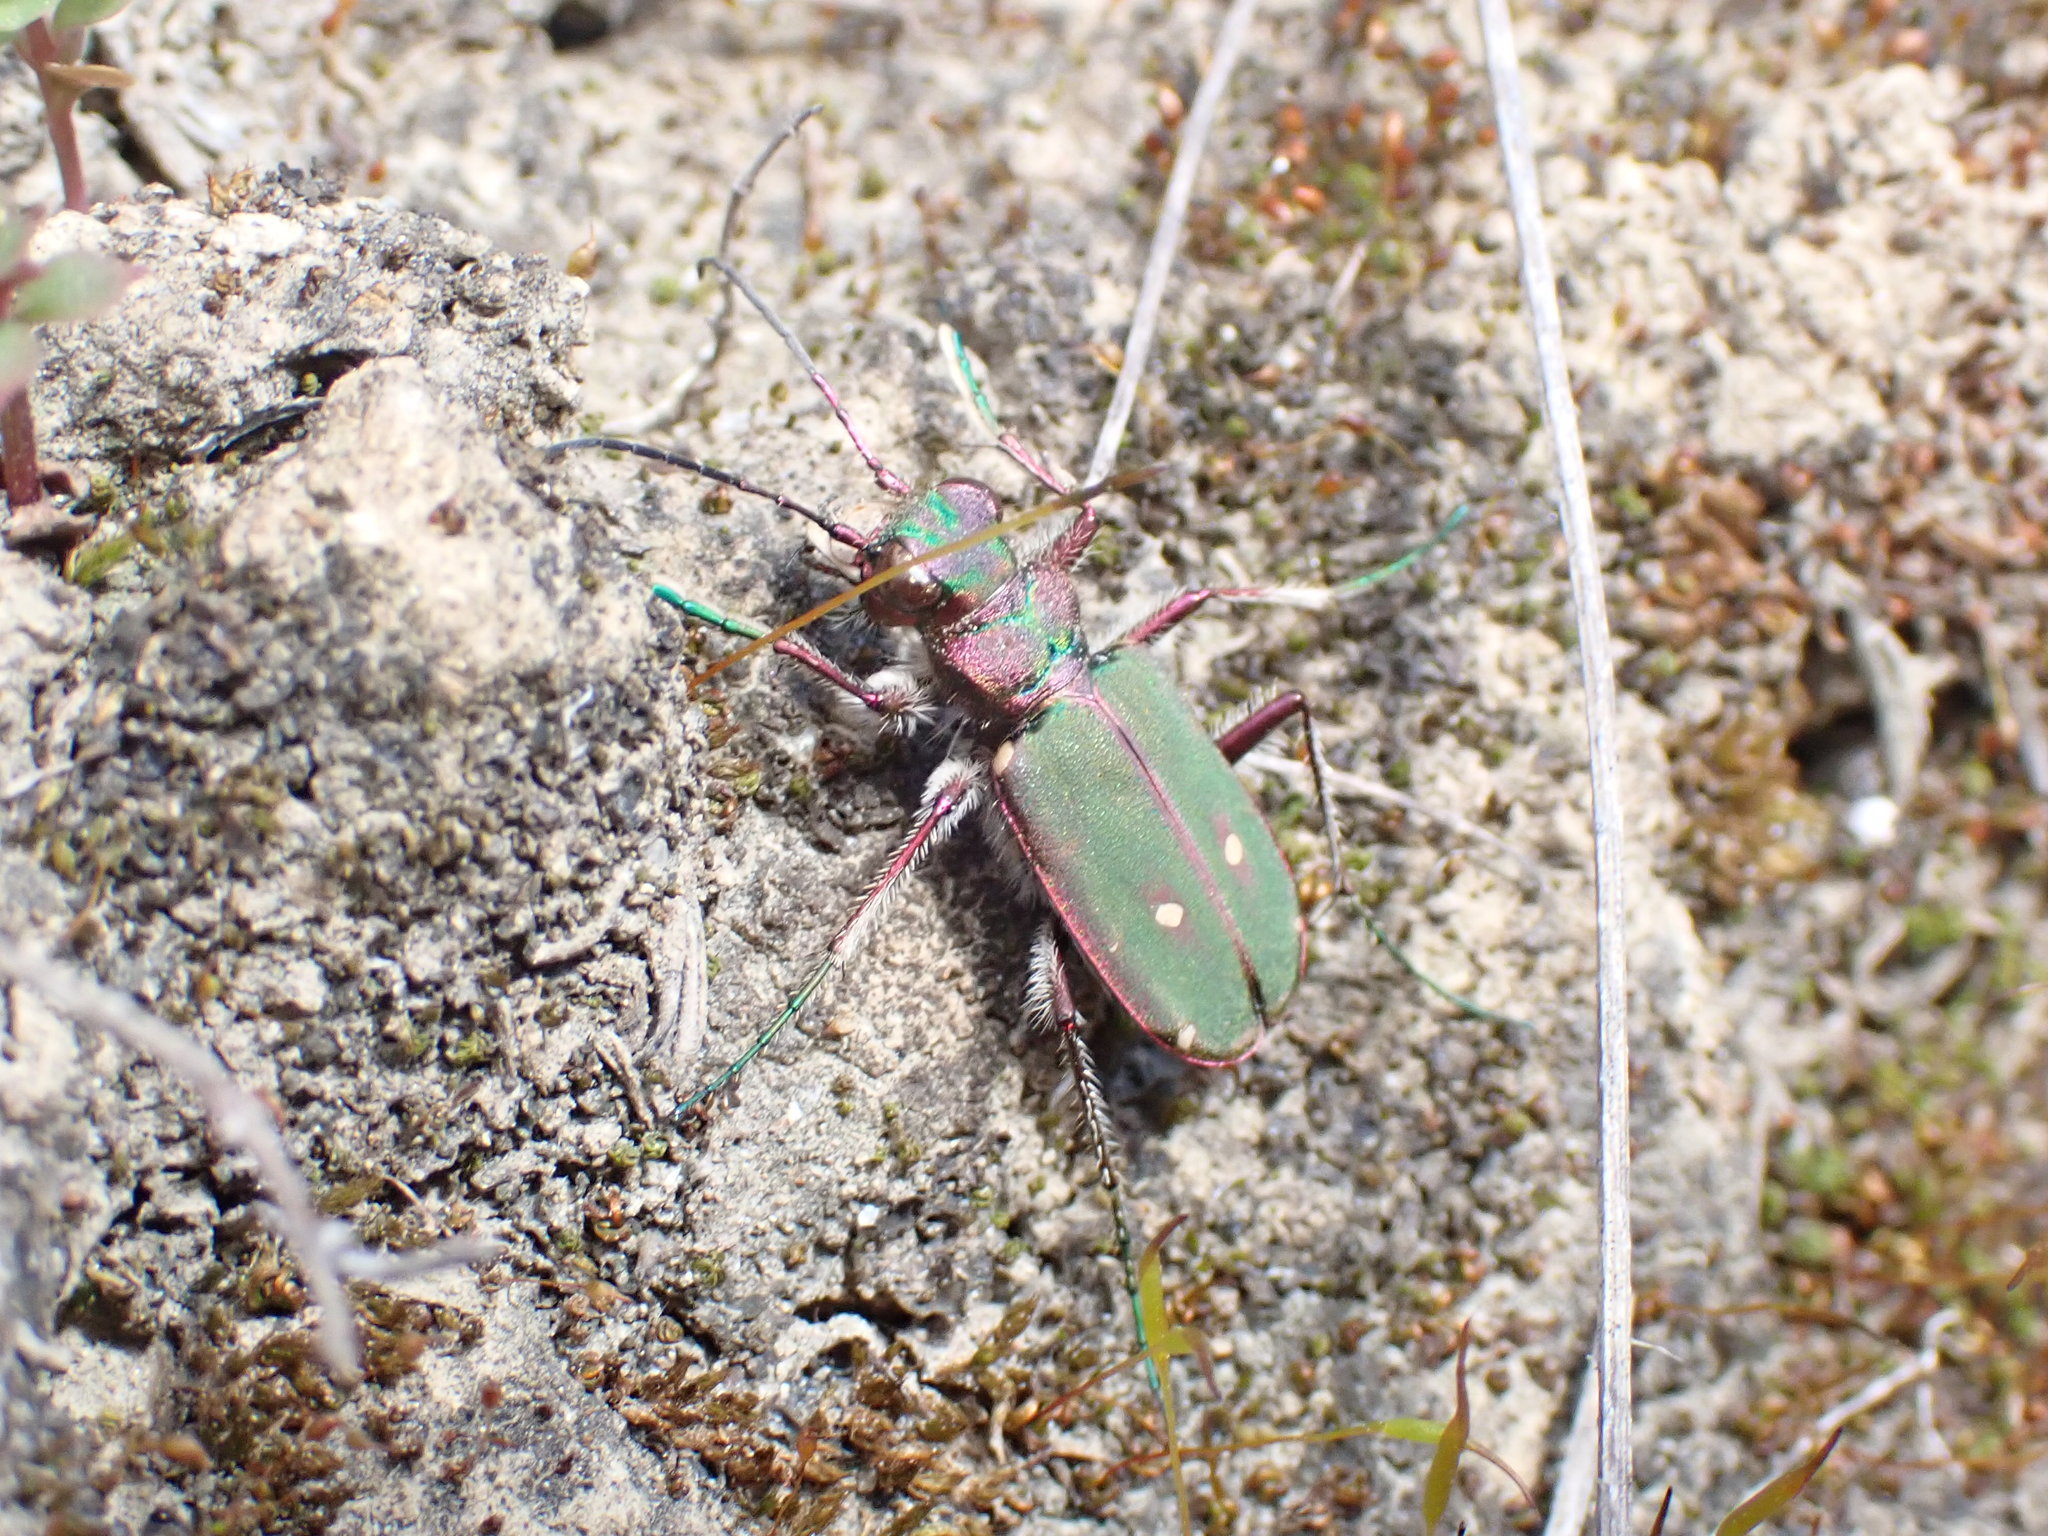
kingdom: Animalia
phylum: Arthropoda
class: Insecta
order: Coleoptera
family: Carabidae
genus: Cicindela
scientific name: Cicindela campestris
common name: Common tiger beetle
